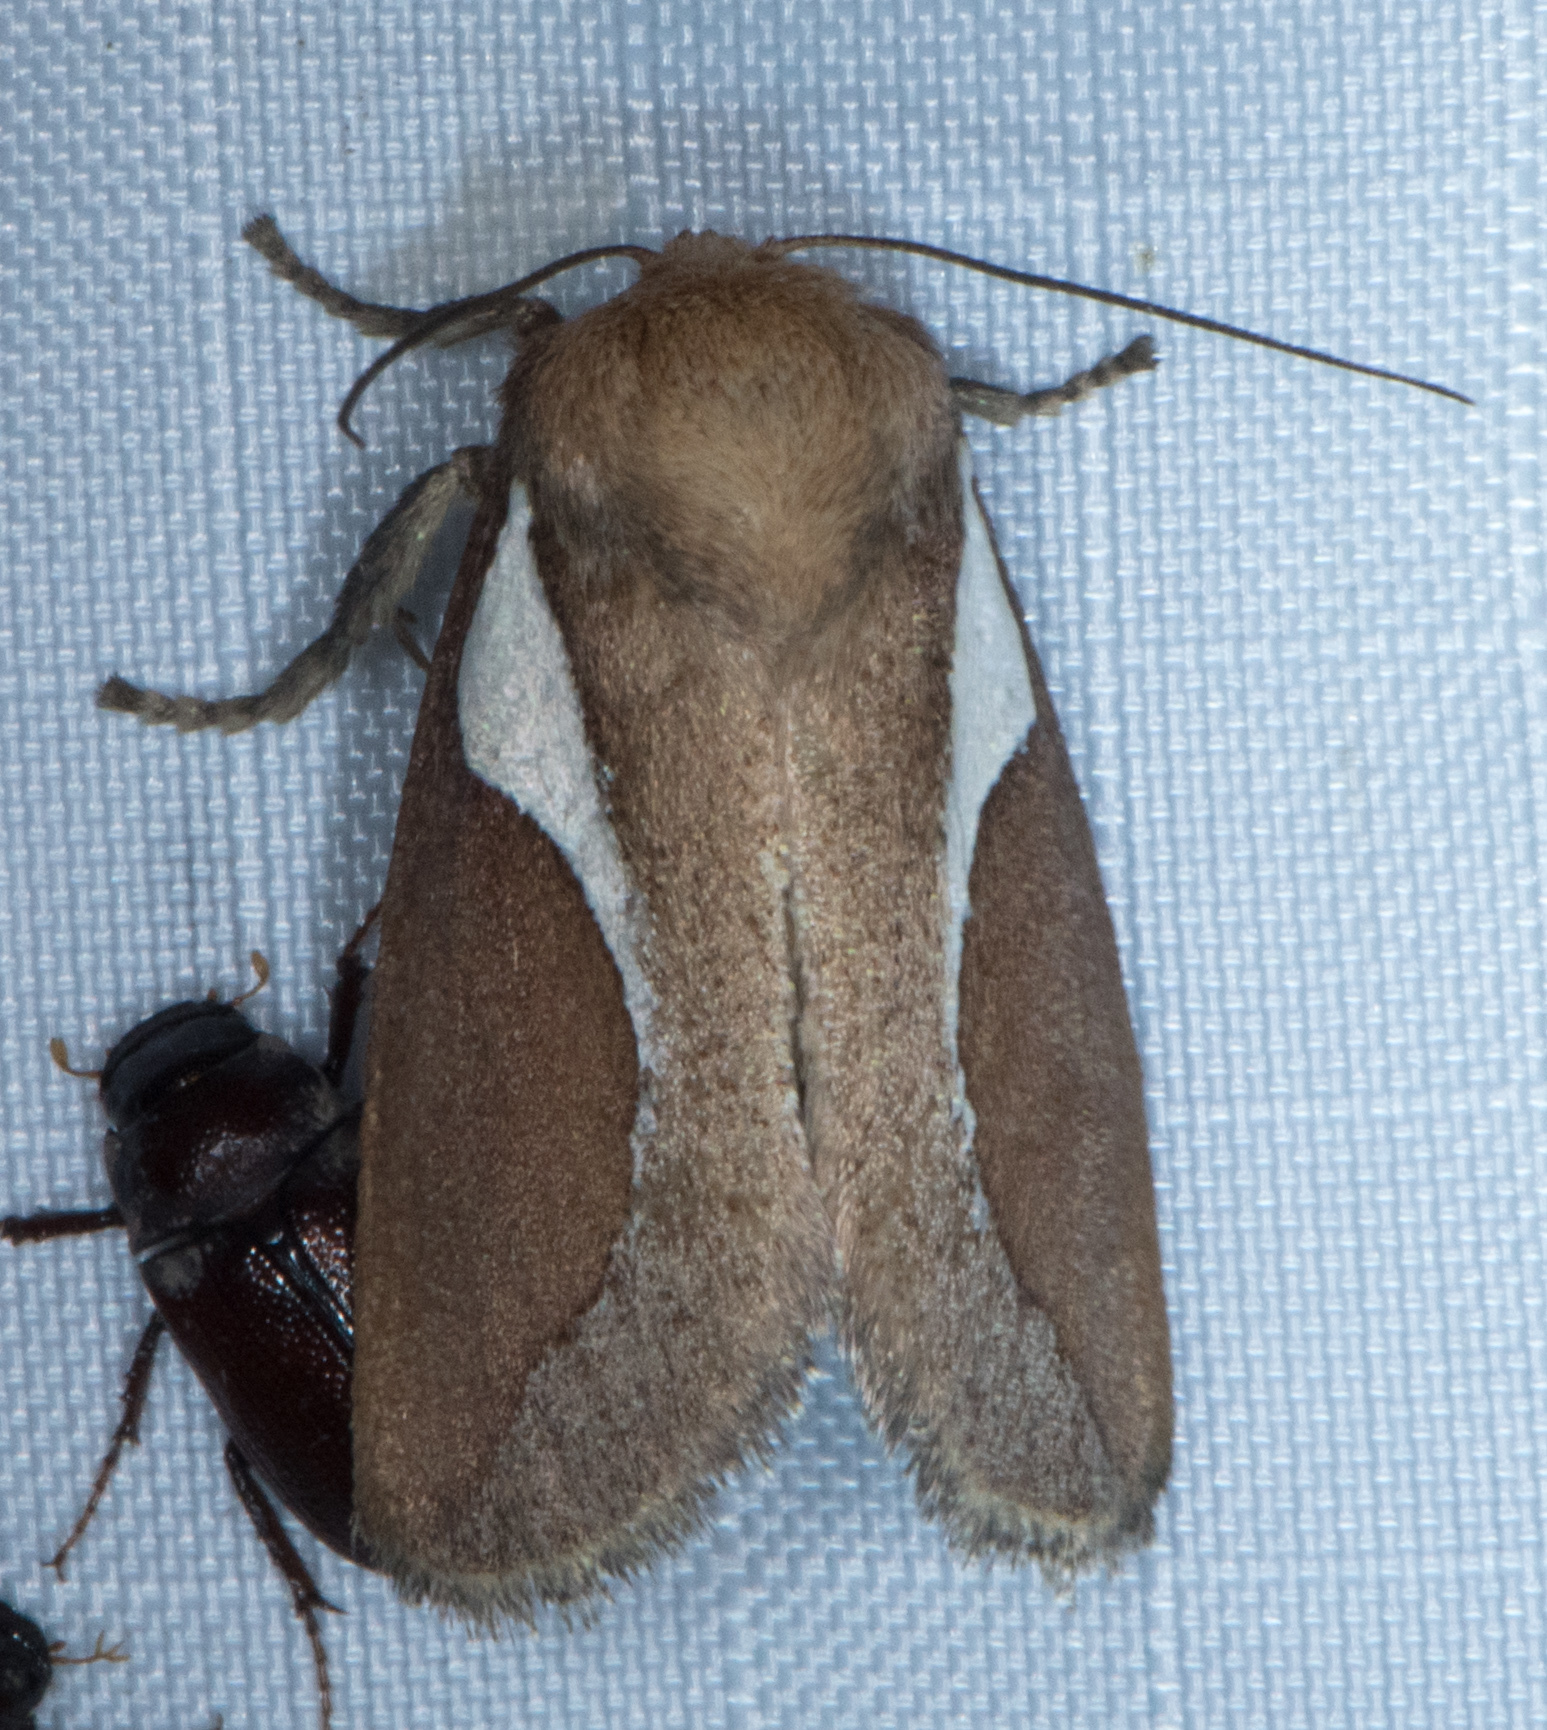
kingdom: Animalia
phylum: Arthropoda
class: Insecta
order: Lepidoptera
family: Limacodidae
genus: Prolimacodes
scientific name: Prolimacodes trigona
